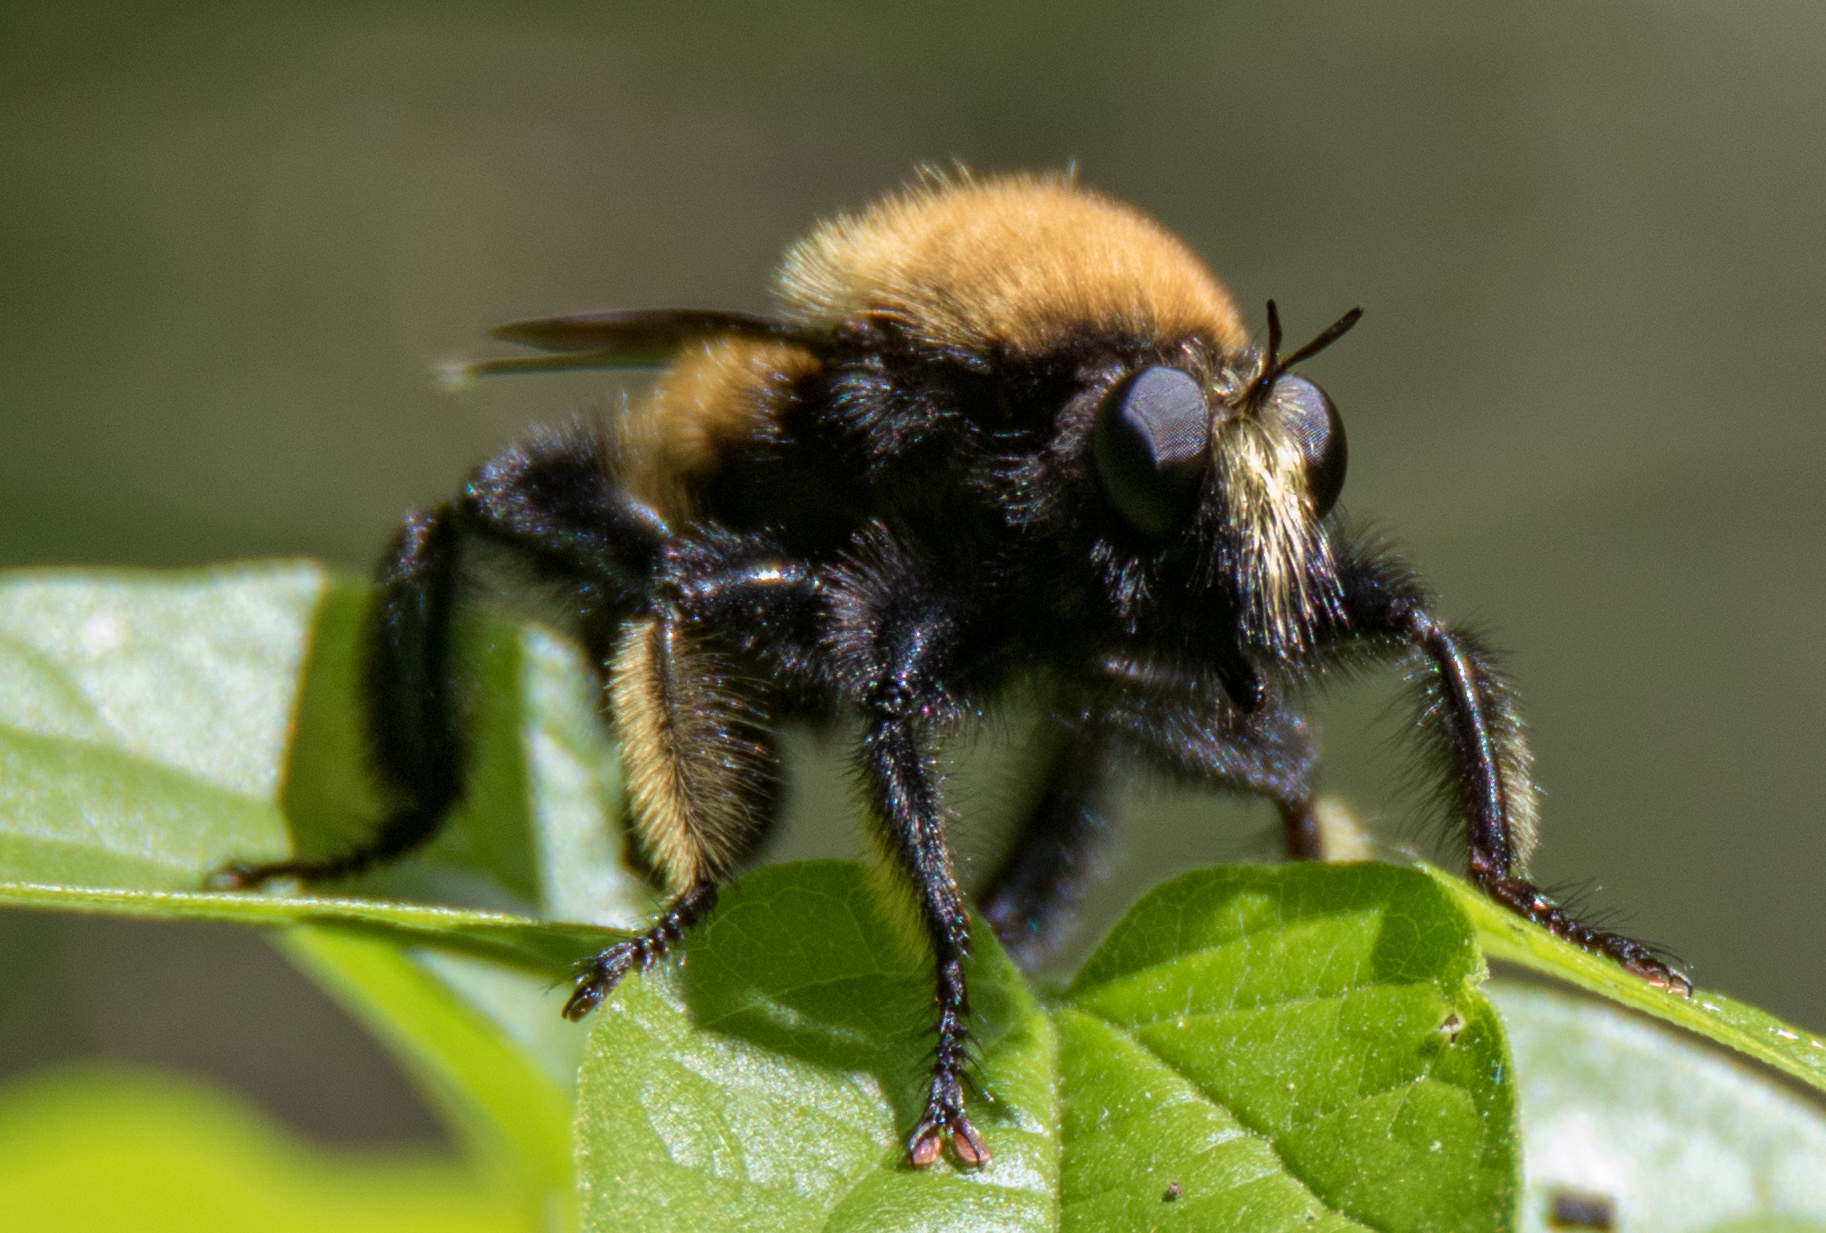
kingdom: Animalia
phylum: Arthropoda
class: Insecta
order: Diptera
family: Asilidae
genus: Laphria
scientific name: Laphria macquarti
